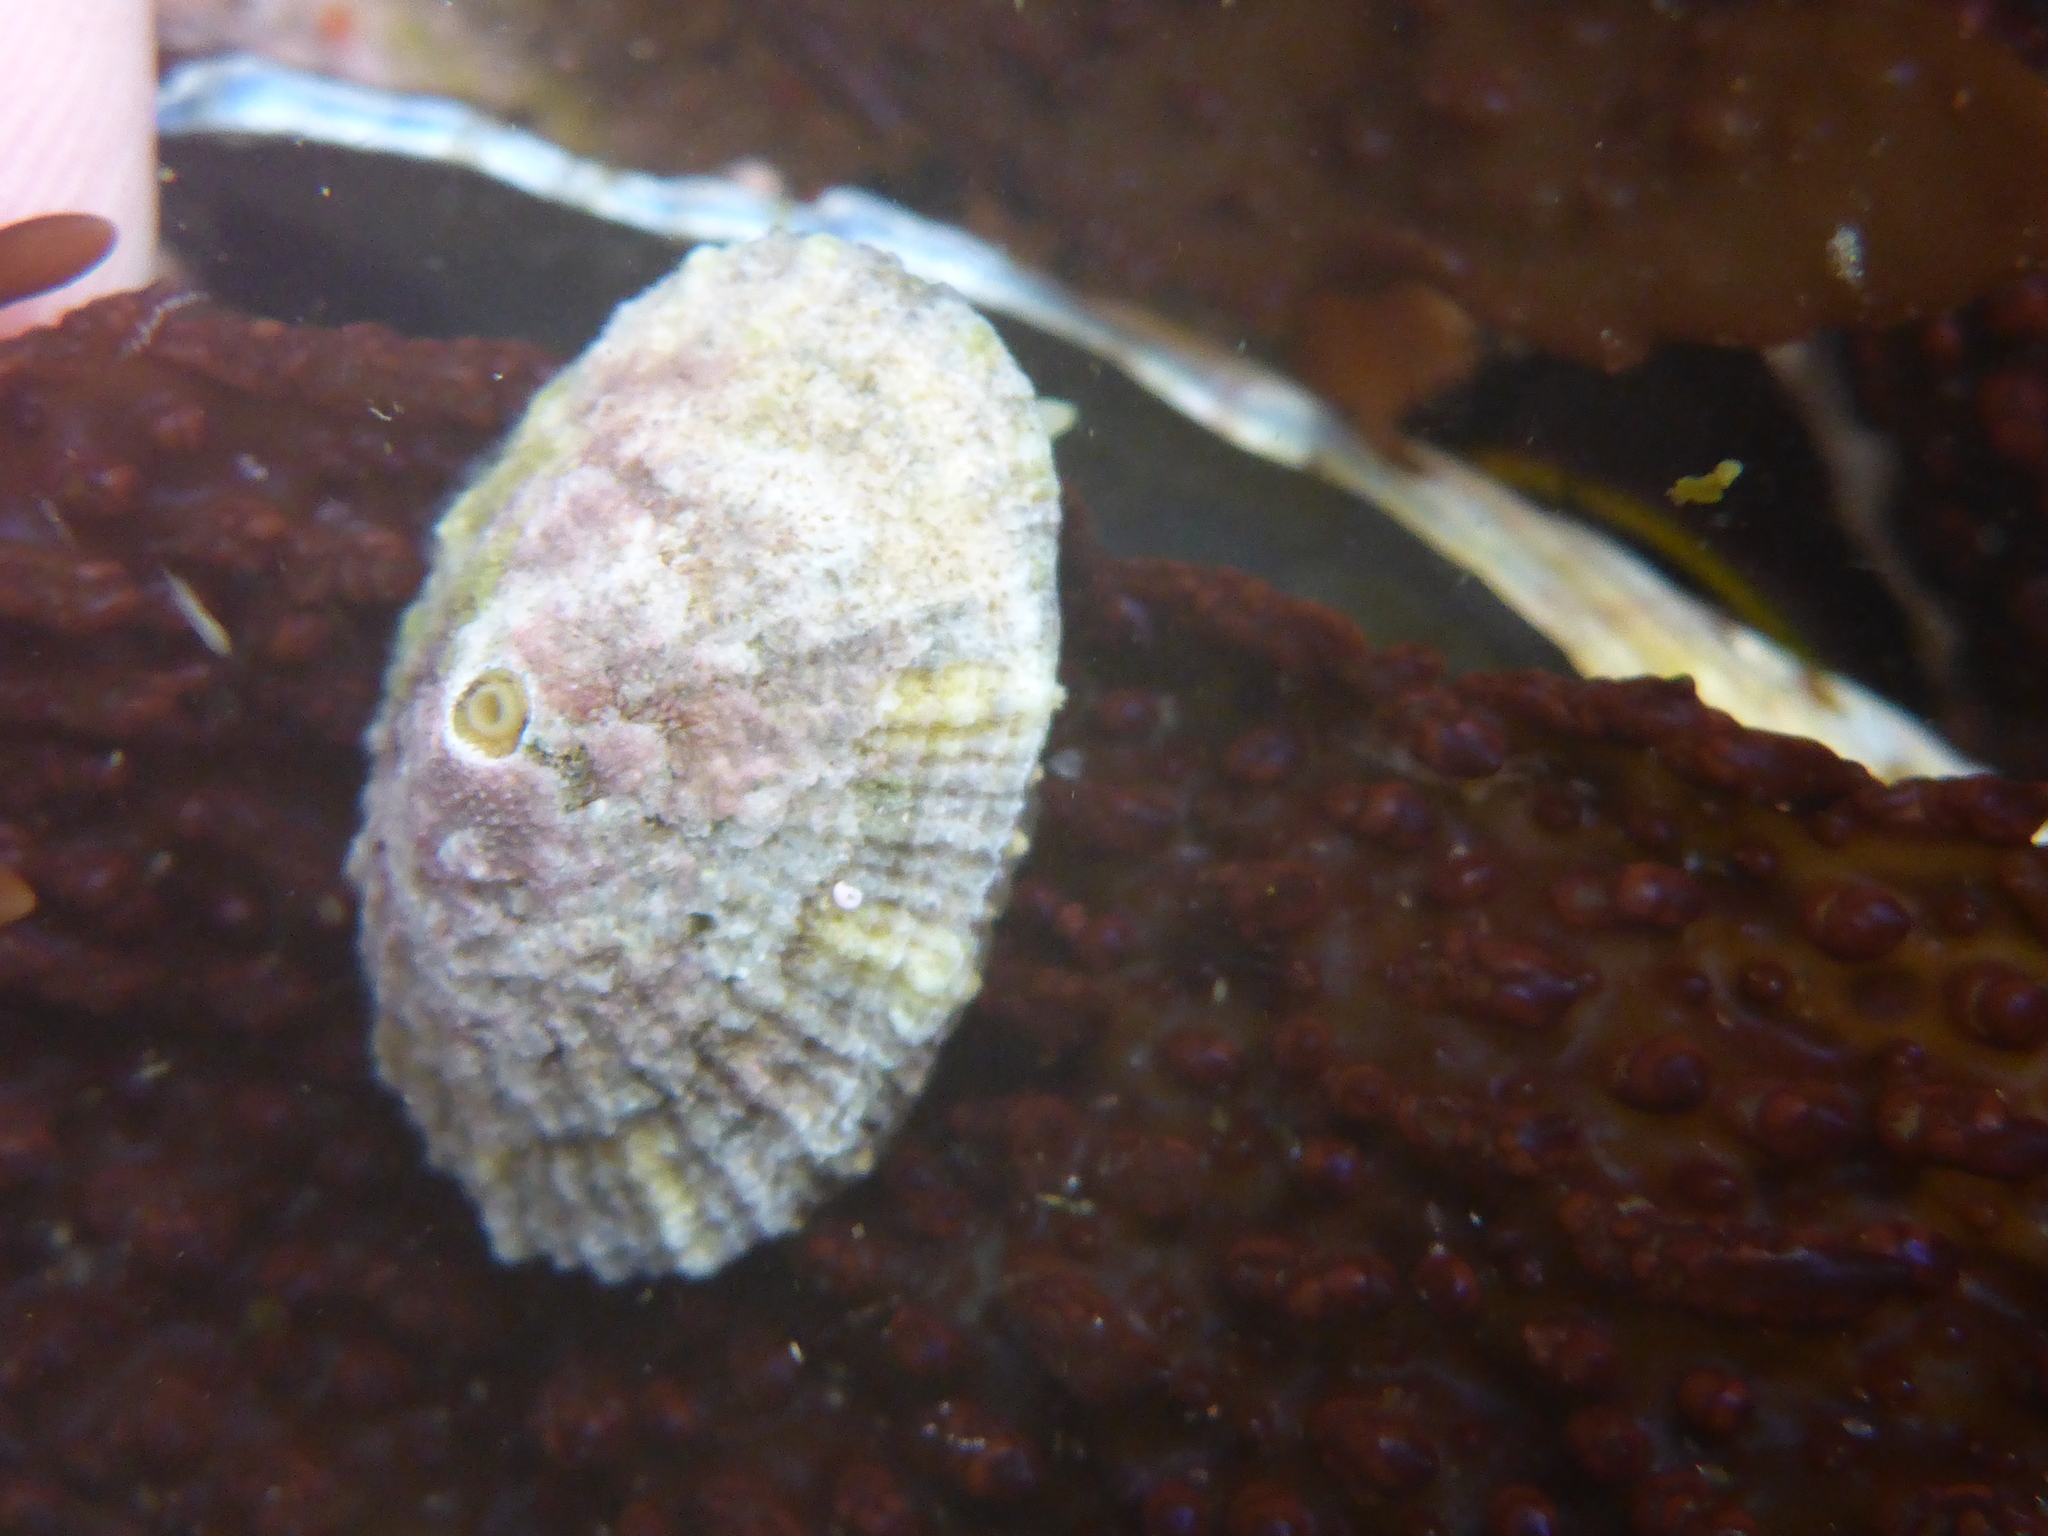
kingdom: Animalia
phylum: Mollusca
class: Gastropoda
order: Lepetellida
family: Fissurellidae
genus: Diodora
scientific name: Diodora aspera
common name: Rough keyhole limpet
